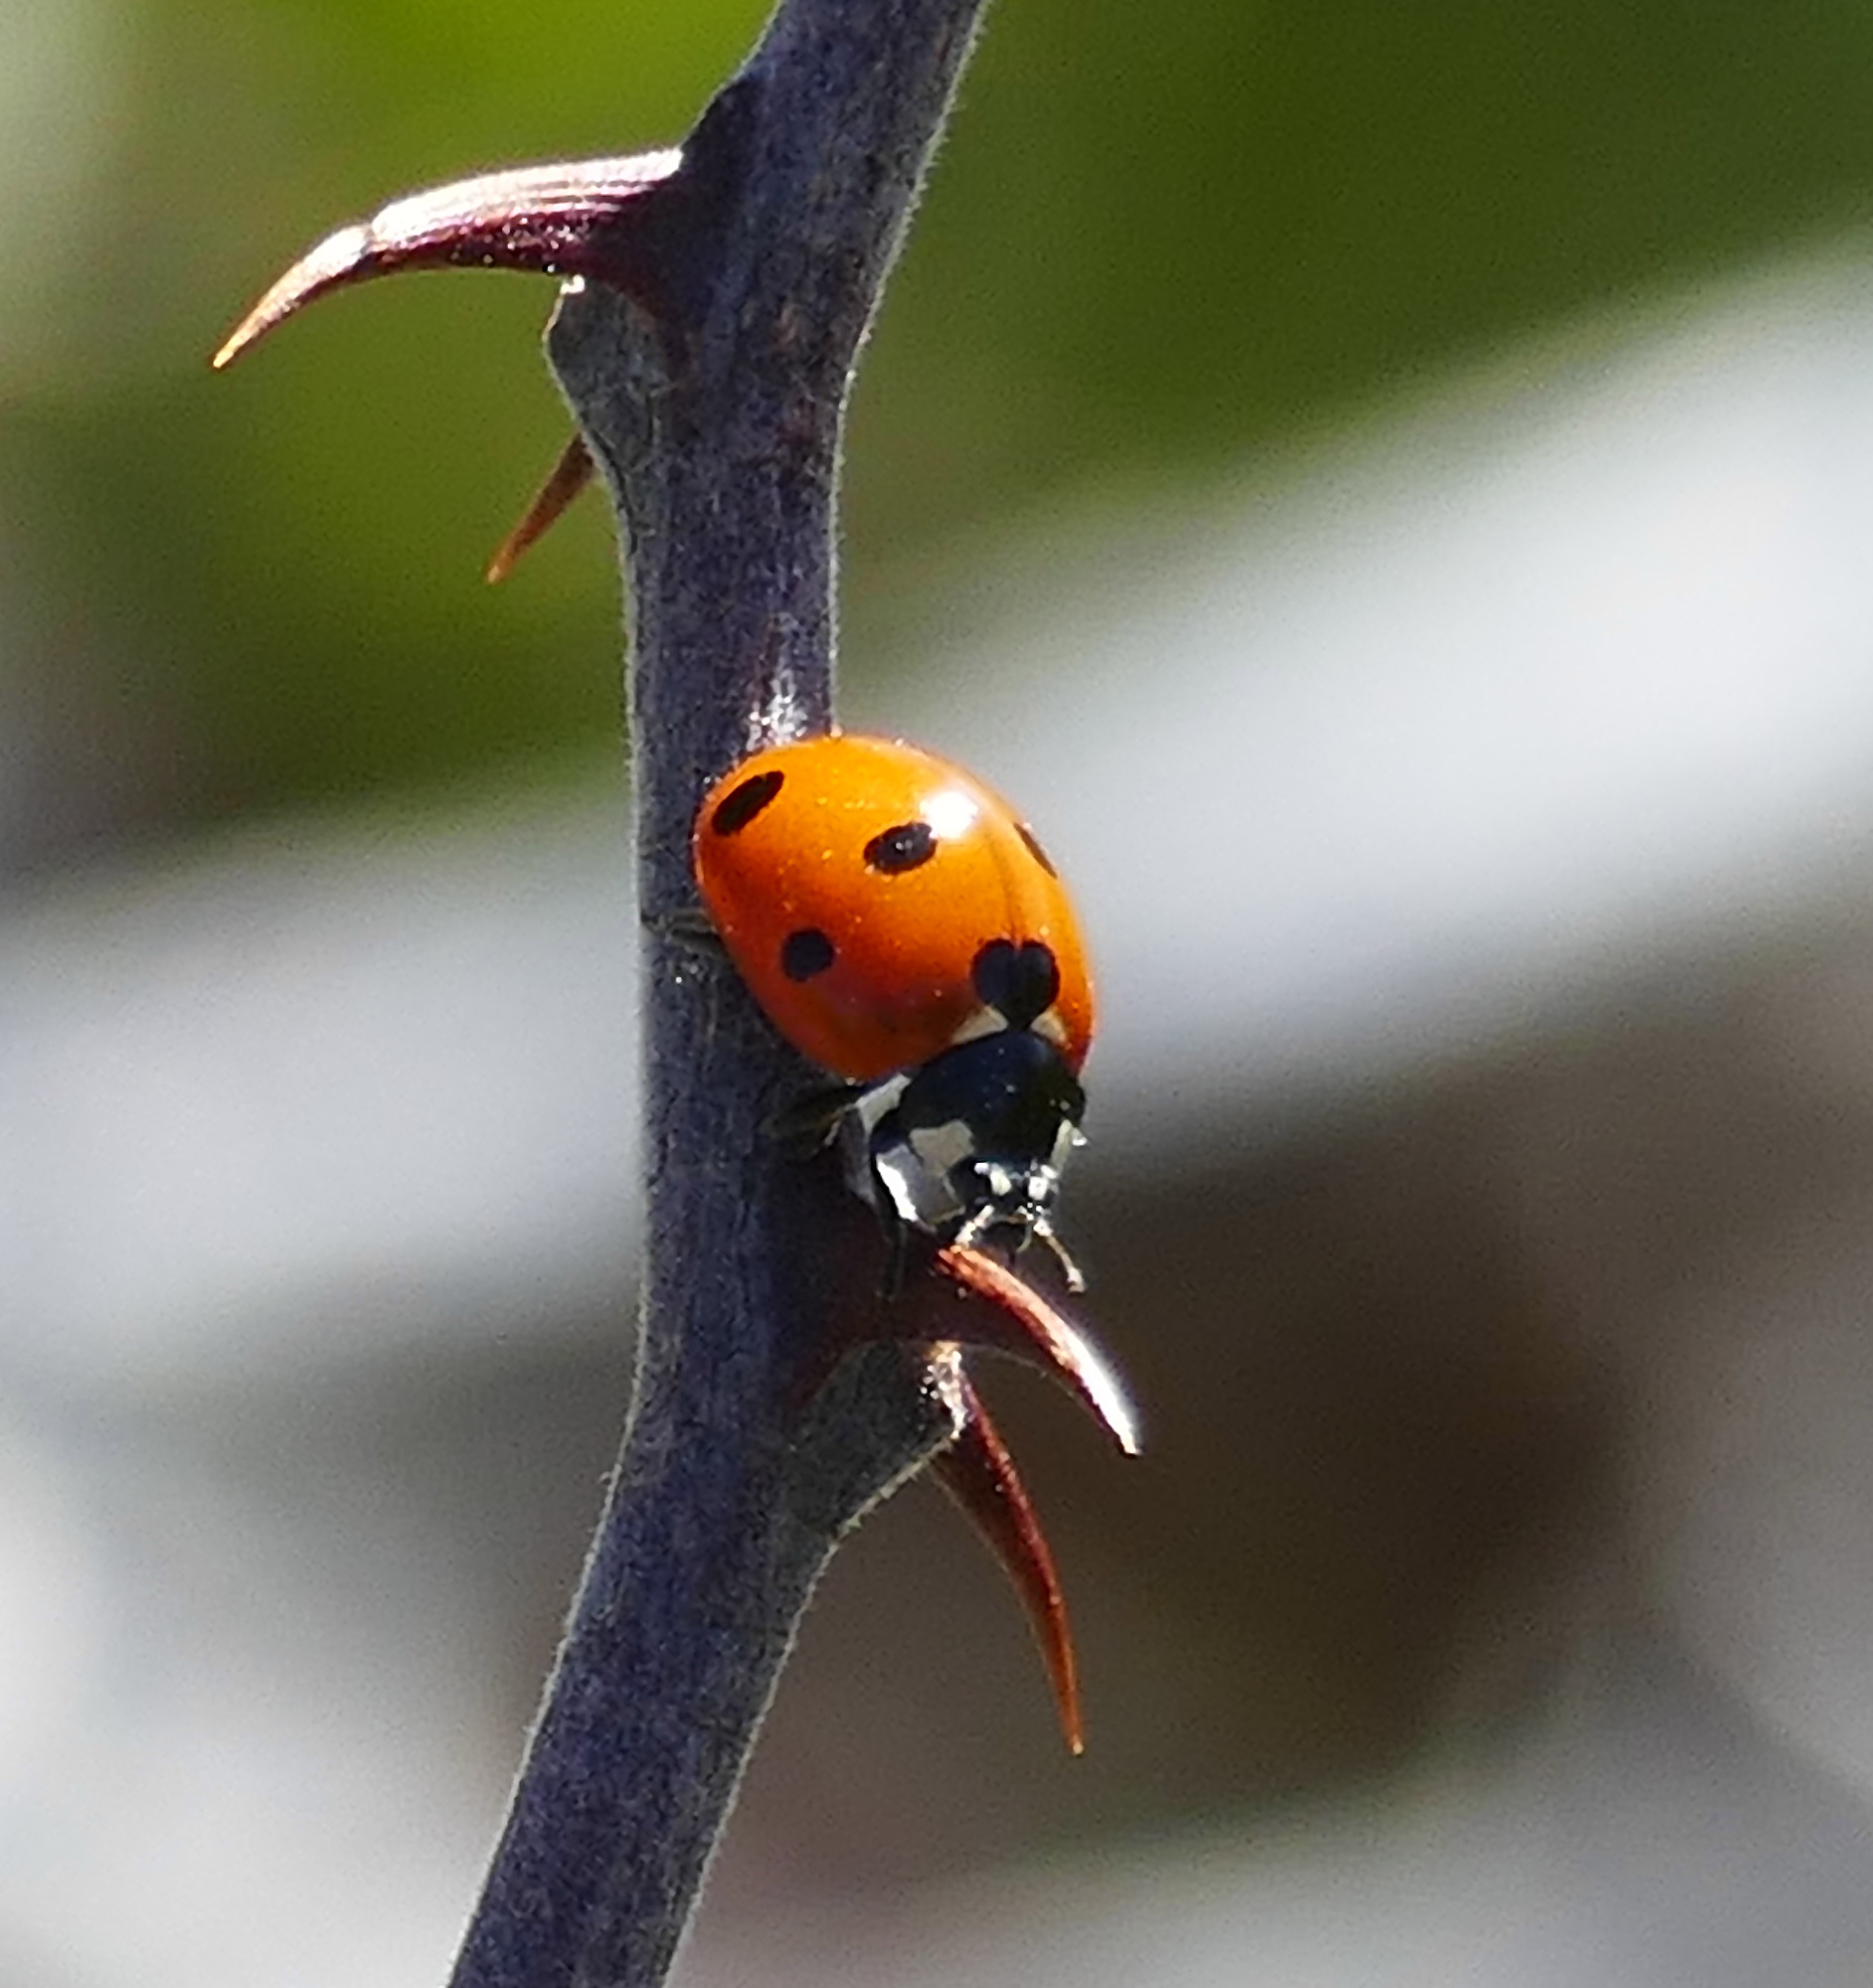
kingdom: Animalia
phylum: Arthropoda
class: Insecta
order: Coleoptera
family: Coccinellidae
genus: Coccinella
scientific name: Coccinella septempunctata
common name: Sevenspotted lady beetle
